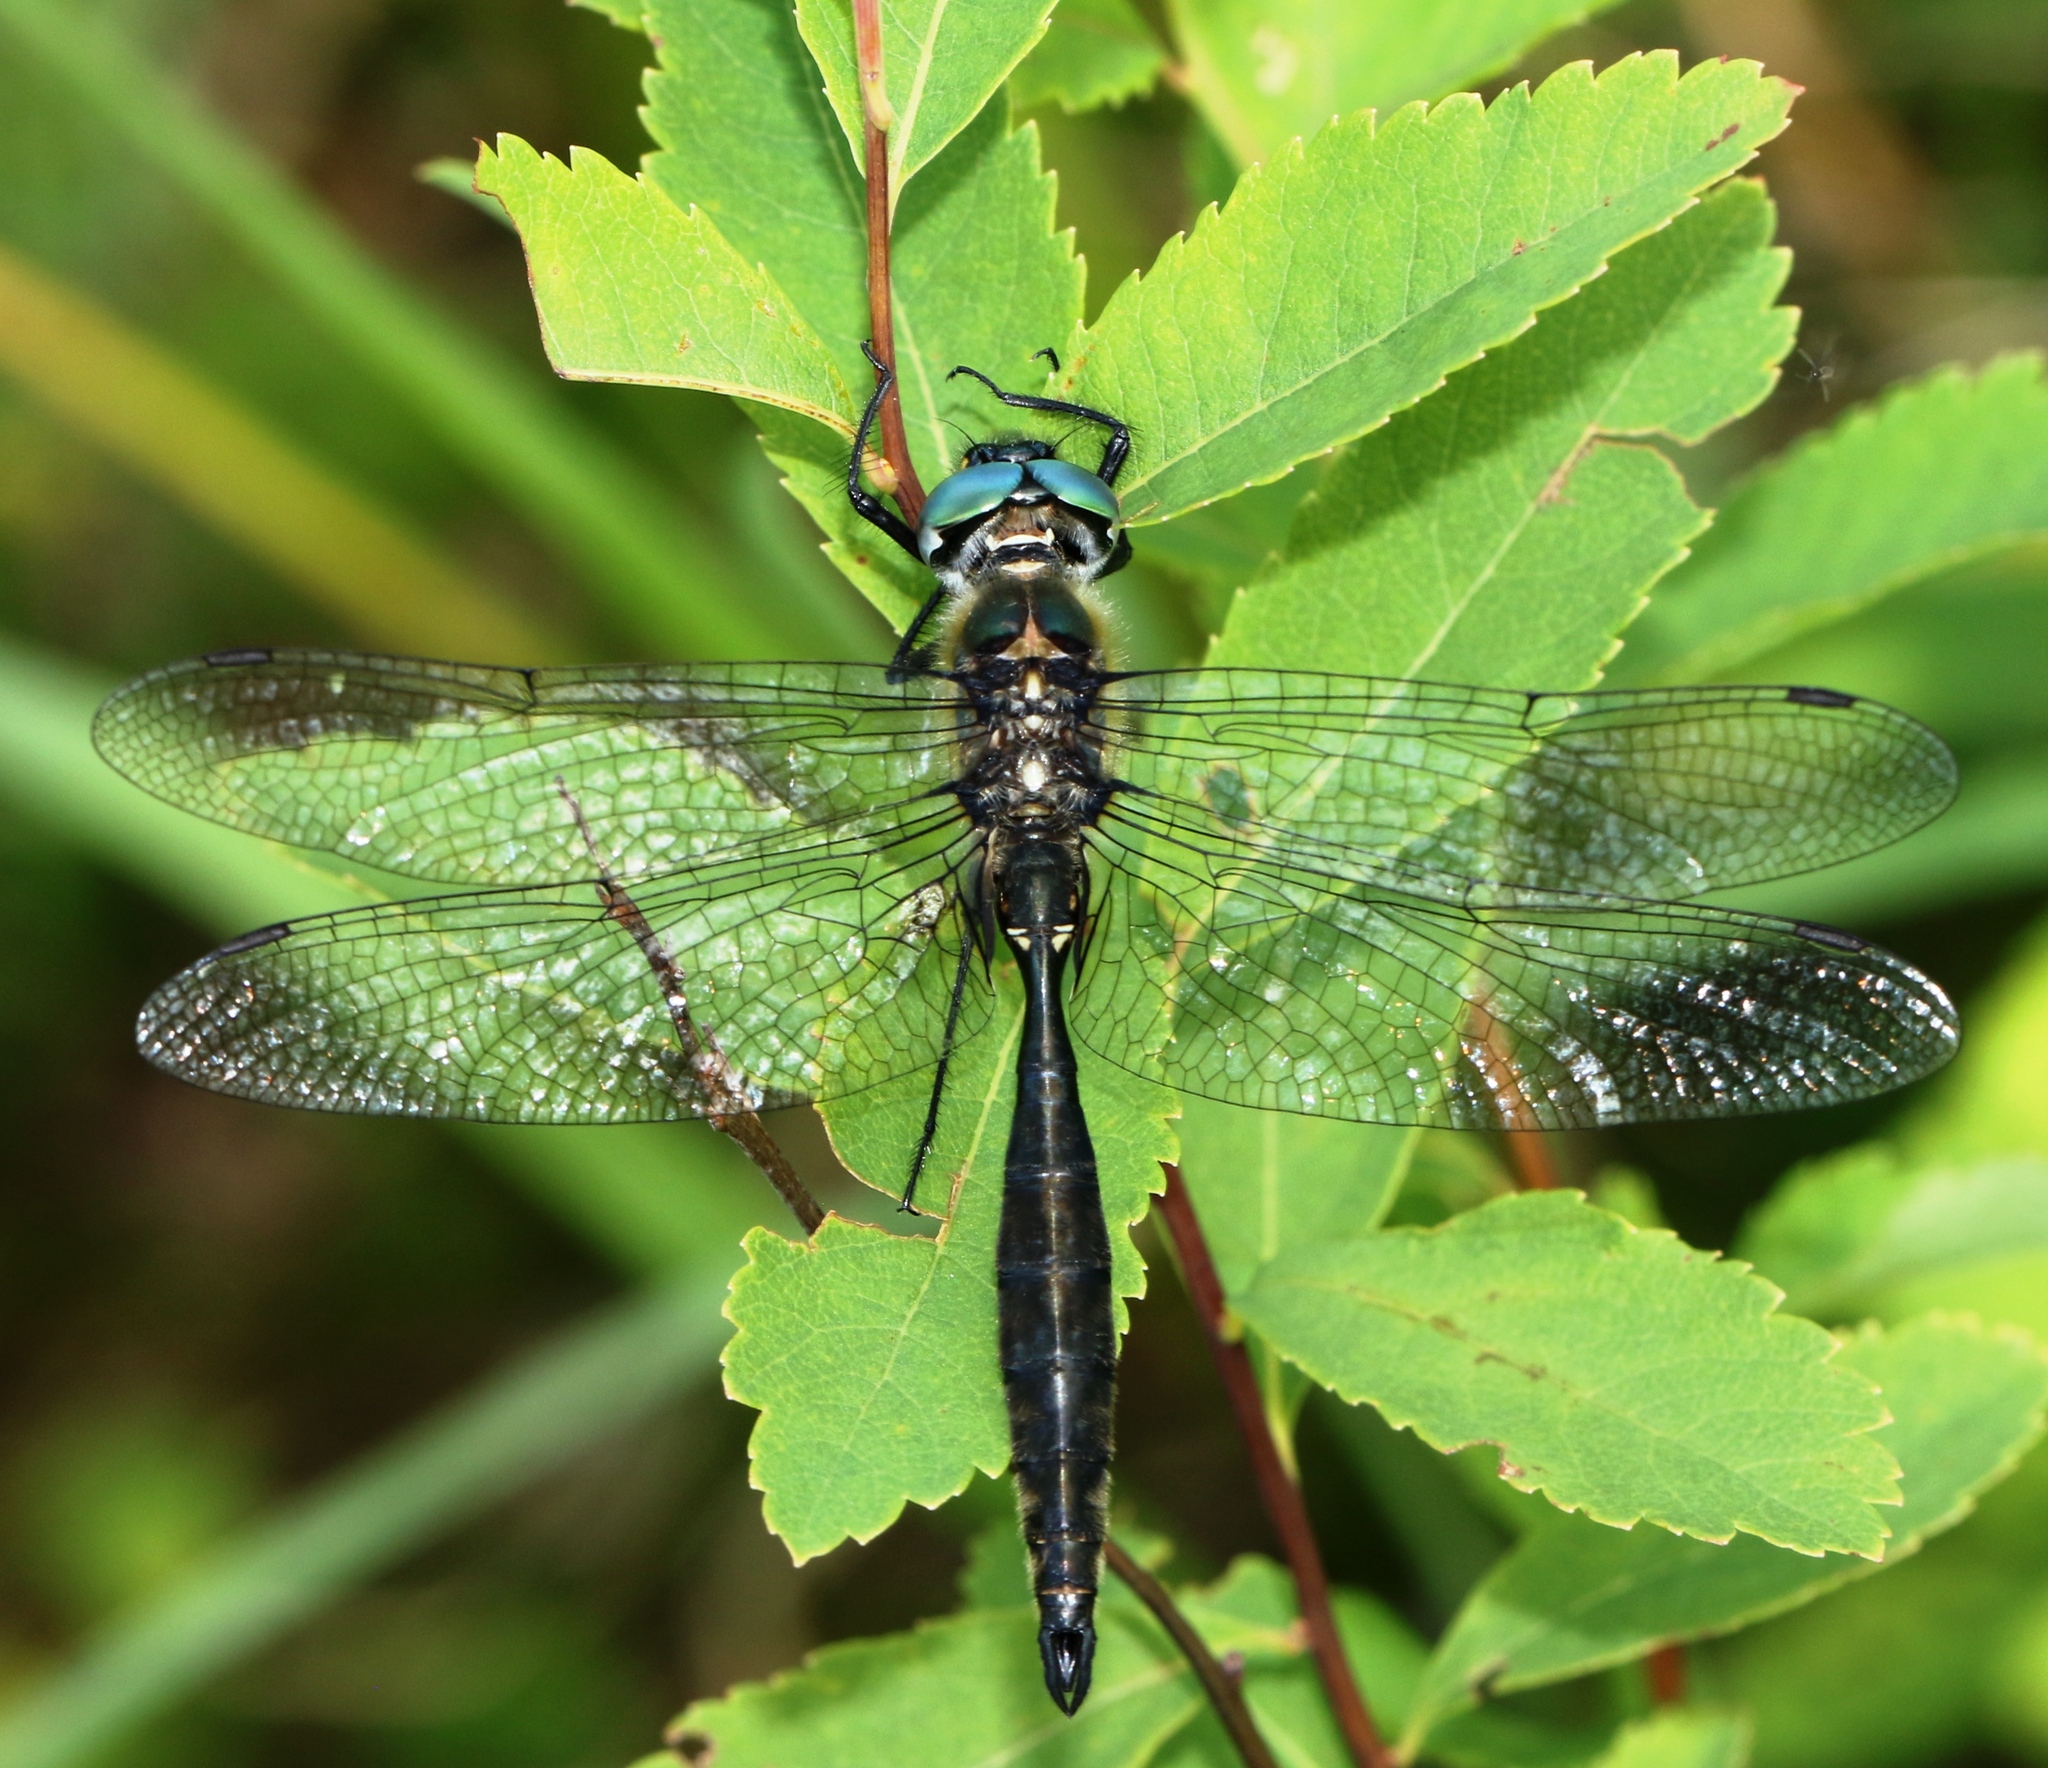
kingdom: Animalia
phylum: Arthropoda
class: Insecta
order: Odonata
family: Corduliidae
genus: Somatochlora
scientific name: Somatochlora minor
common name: Ocellated emerald
